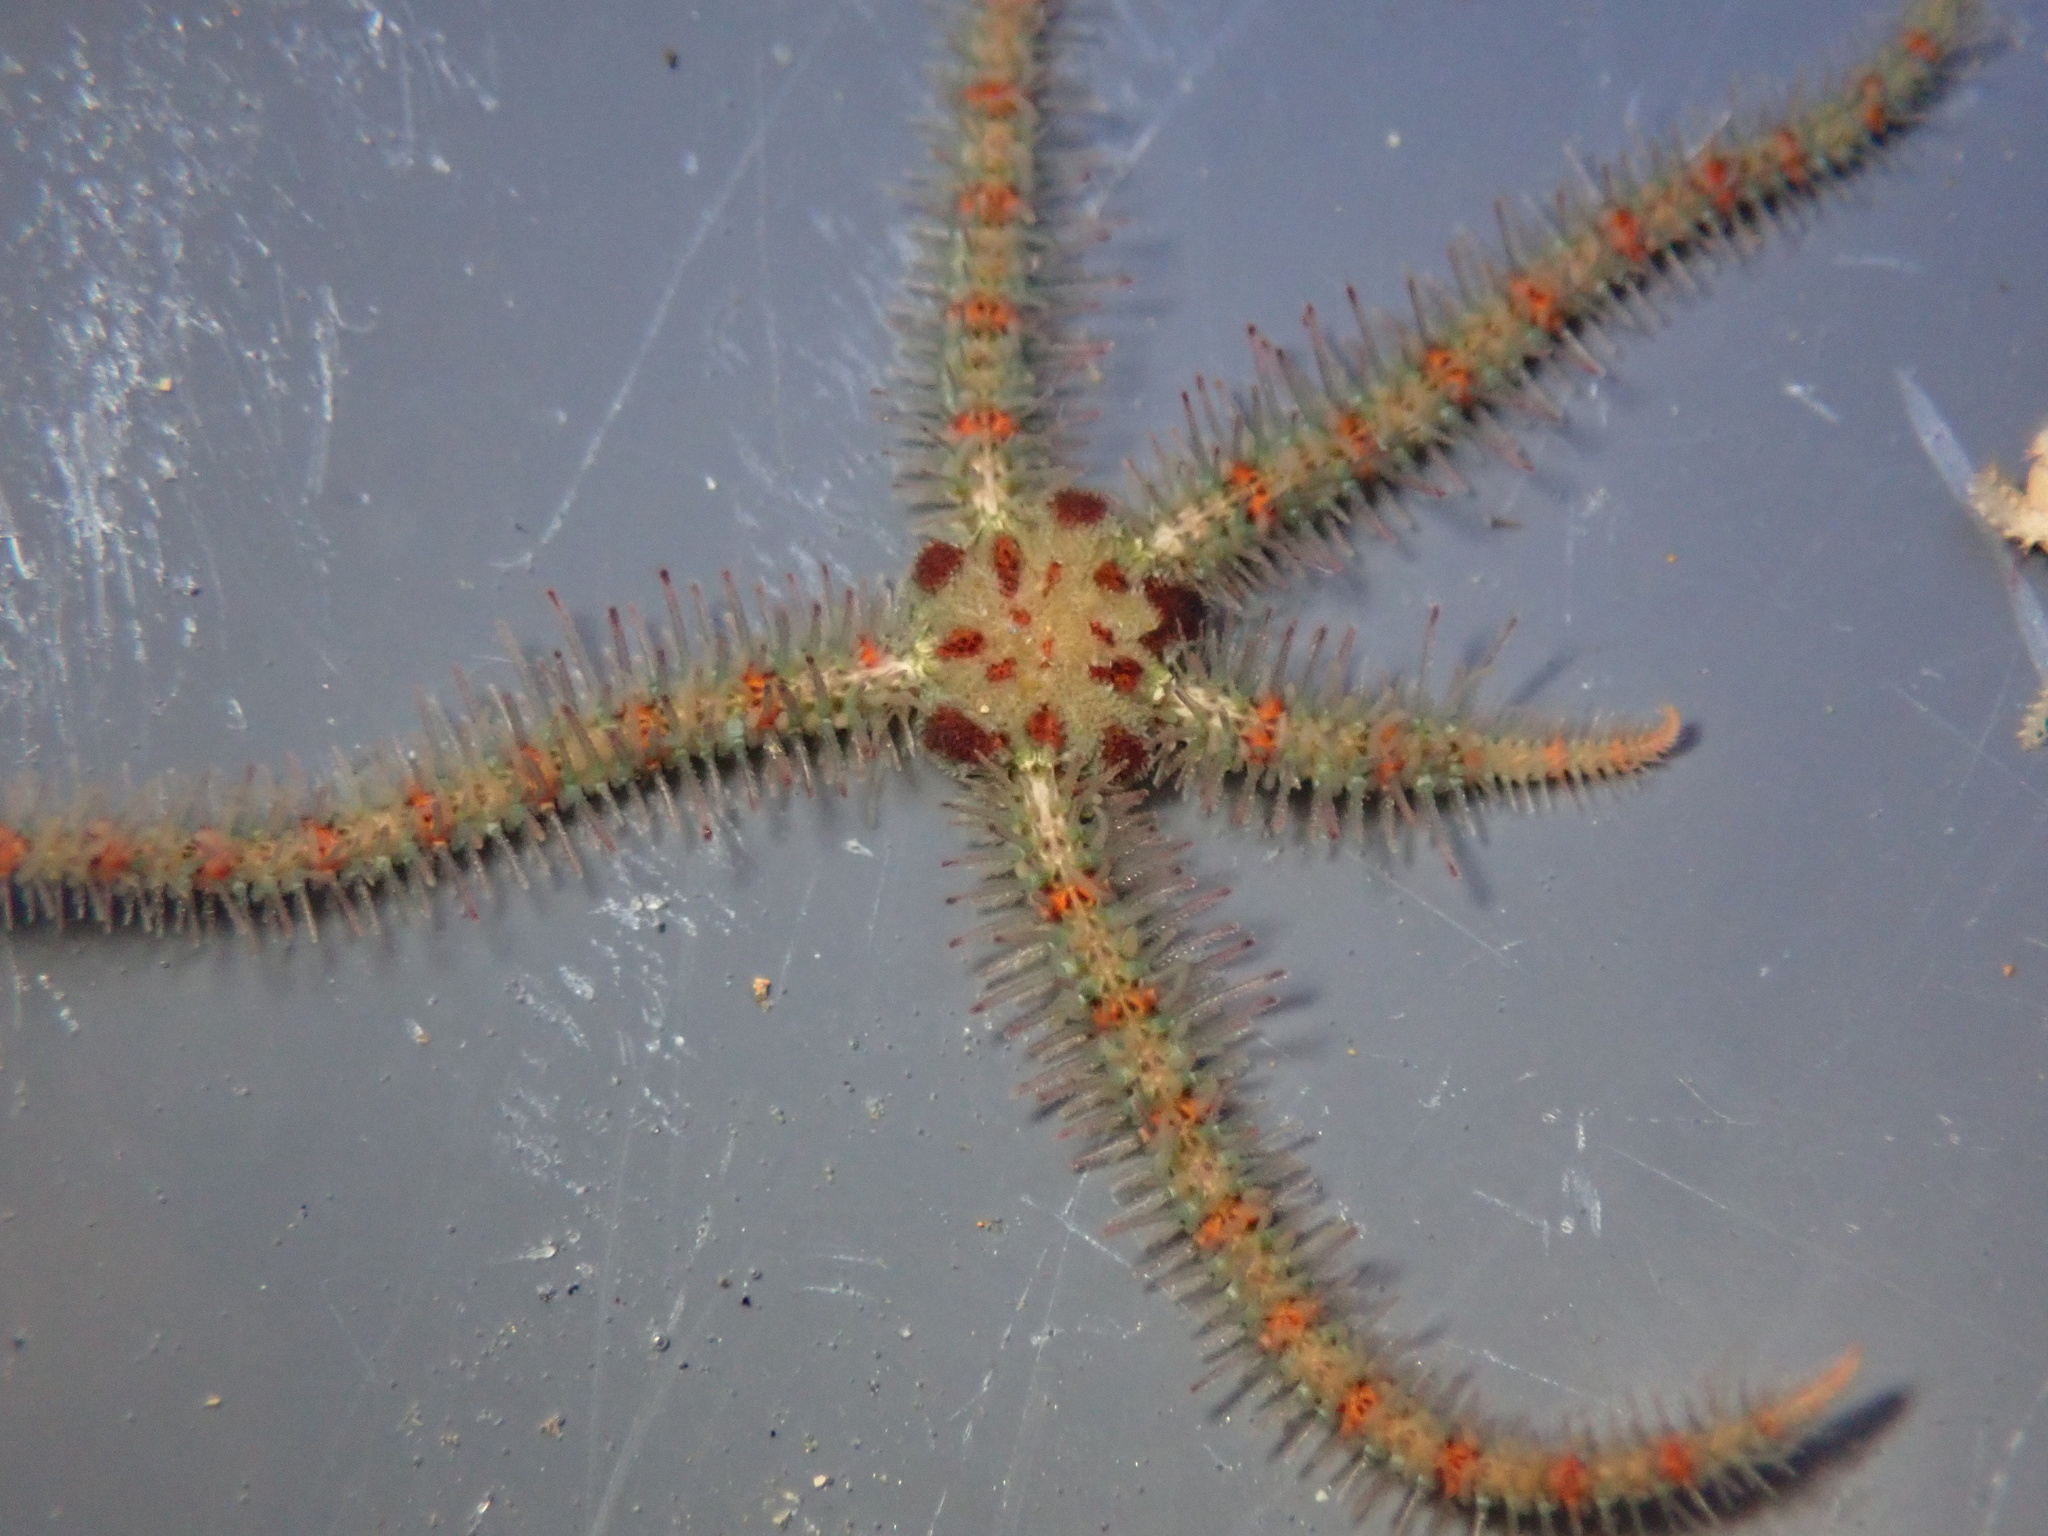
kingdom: Animalia
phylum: Echinodermata
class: Ophiuroidea
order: Amphilepidida
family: Ophiotrichidae
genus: Ophiothrix
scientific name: Ophiothrix spiculata
